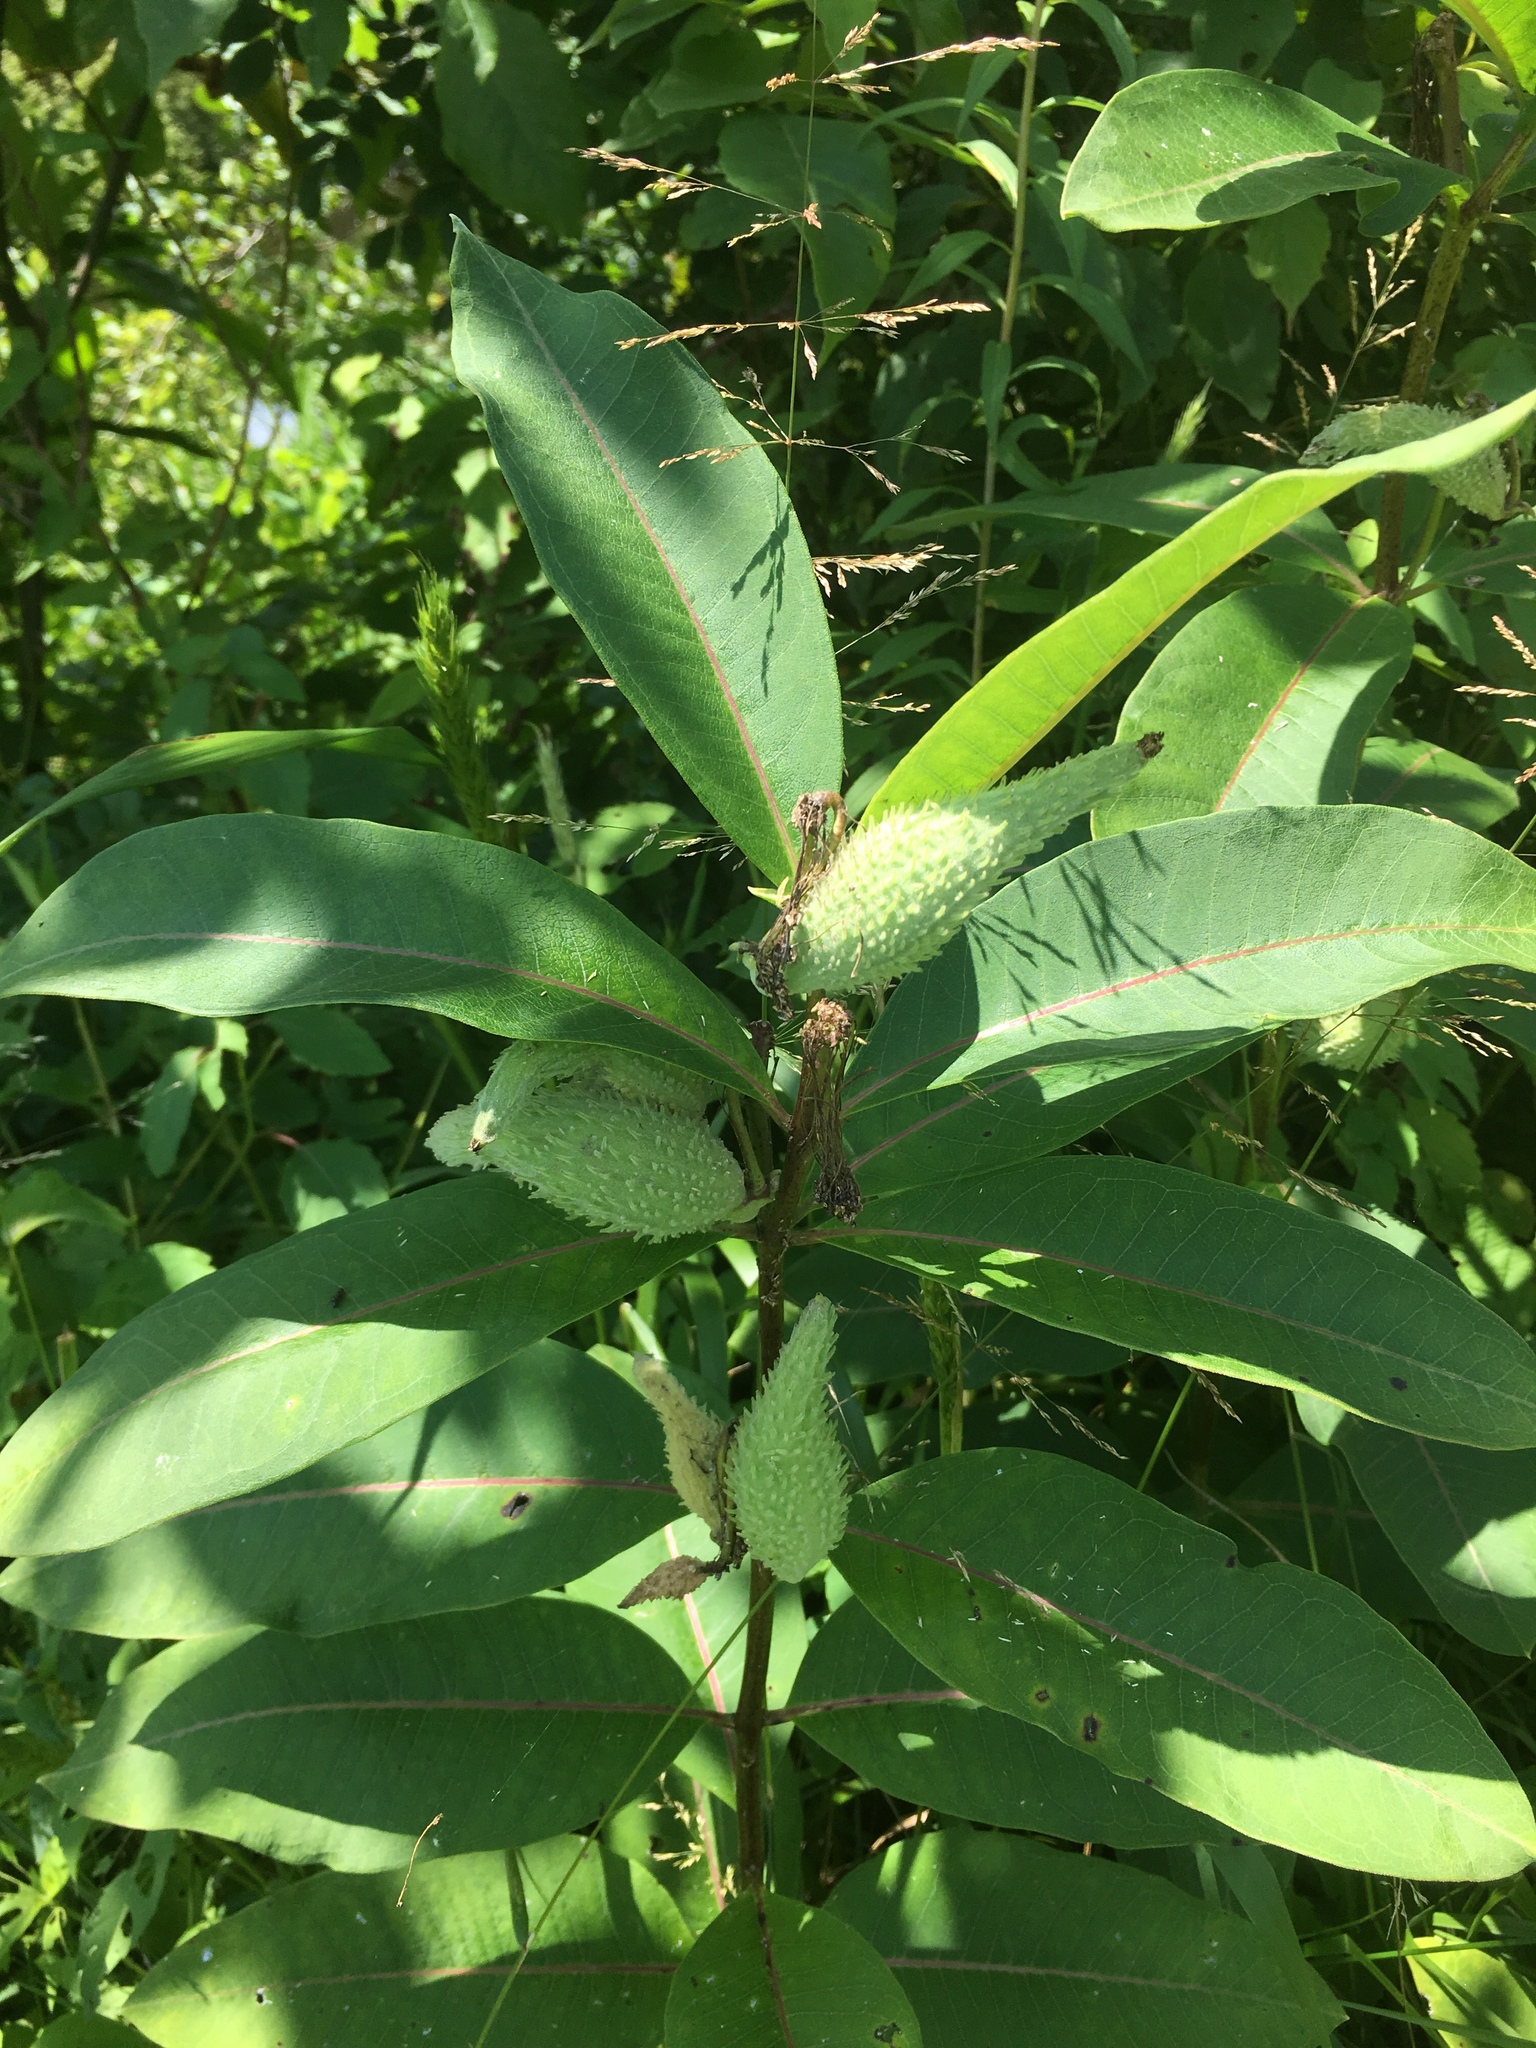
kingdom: Plantae
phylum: Tracheophyta
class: Magnoliopsida
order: Gentianales
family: Apocynaceae
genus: Asclepias
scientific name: Asclepias syriaca
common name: Common milkweed
